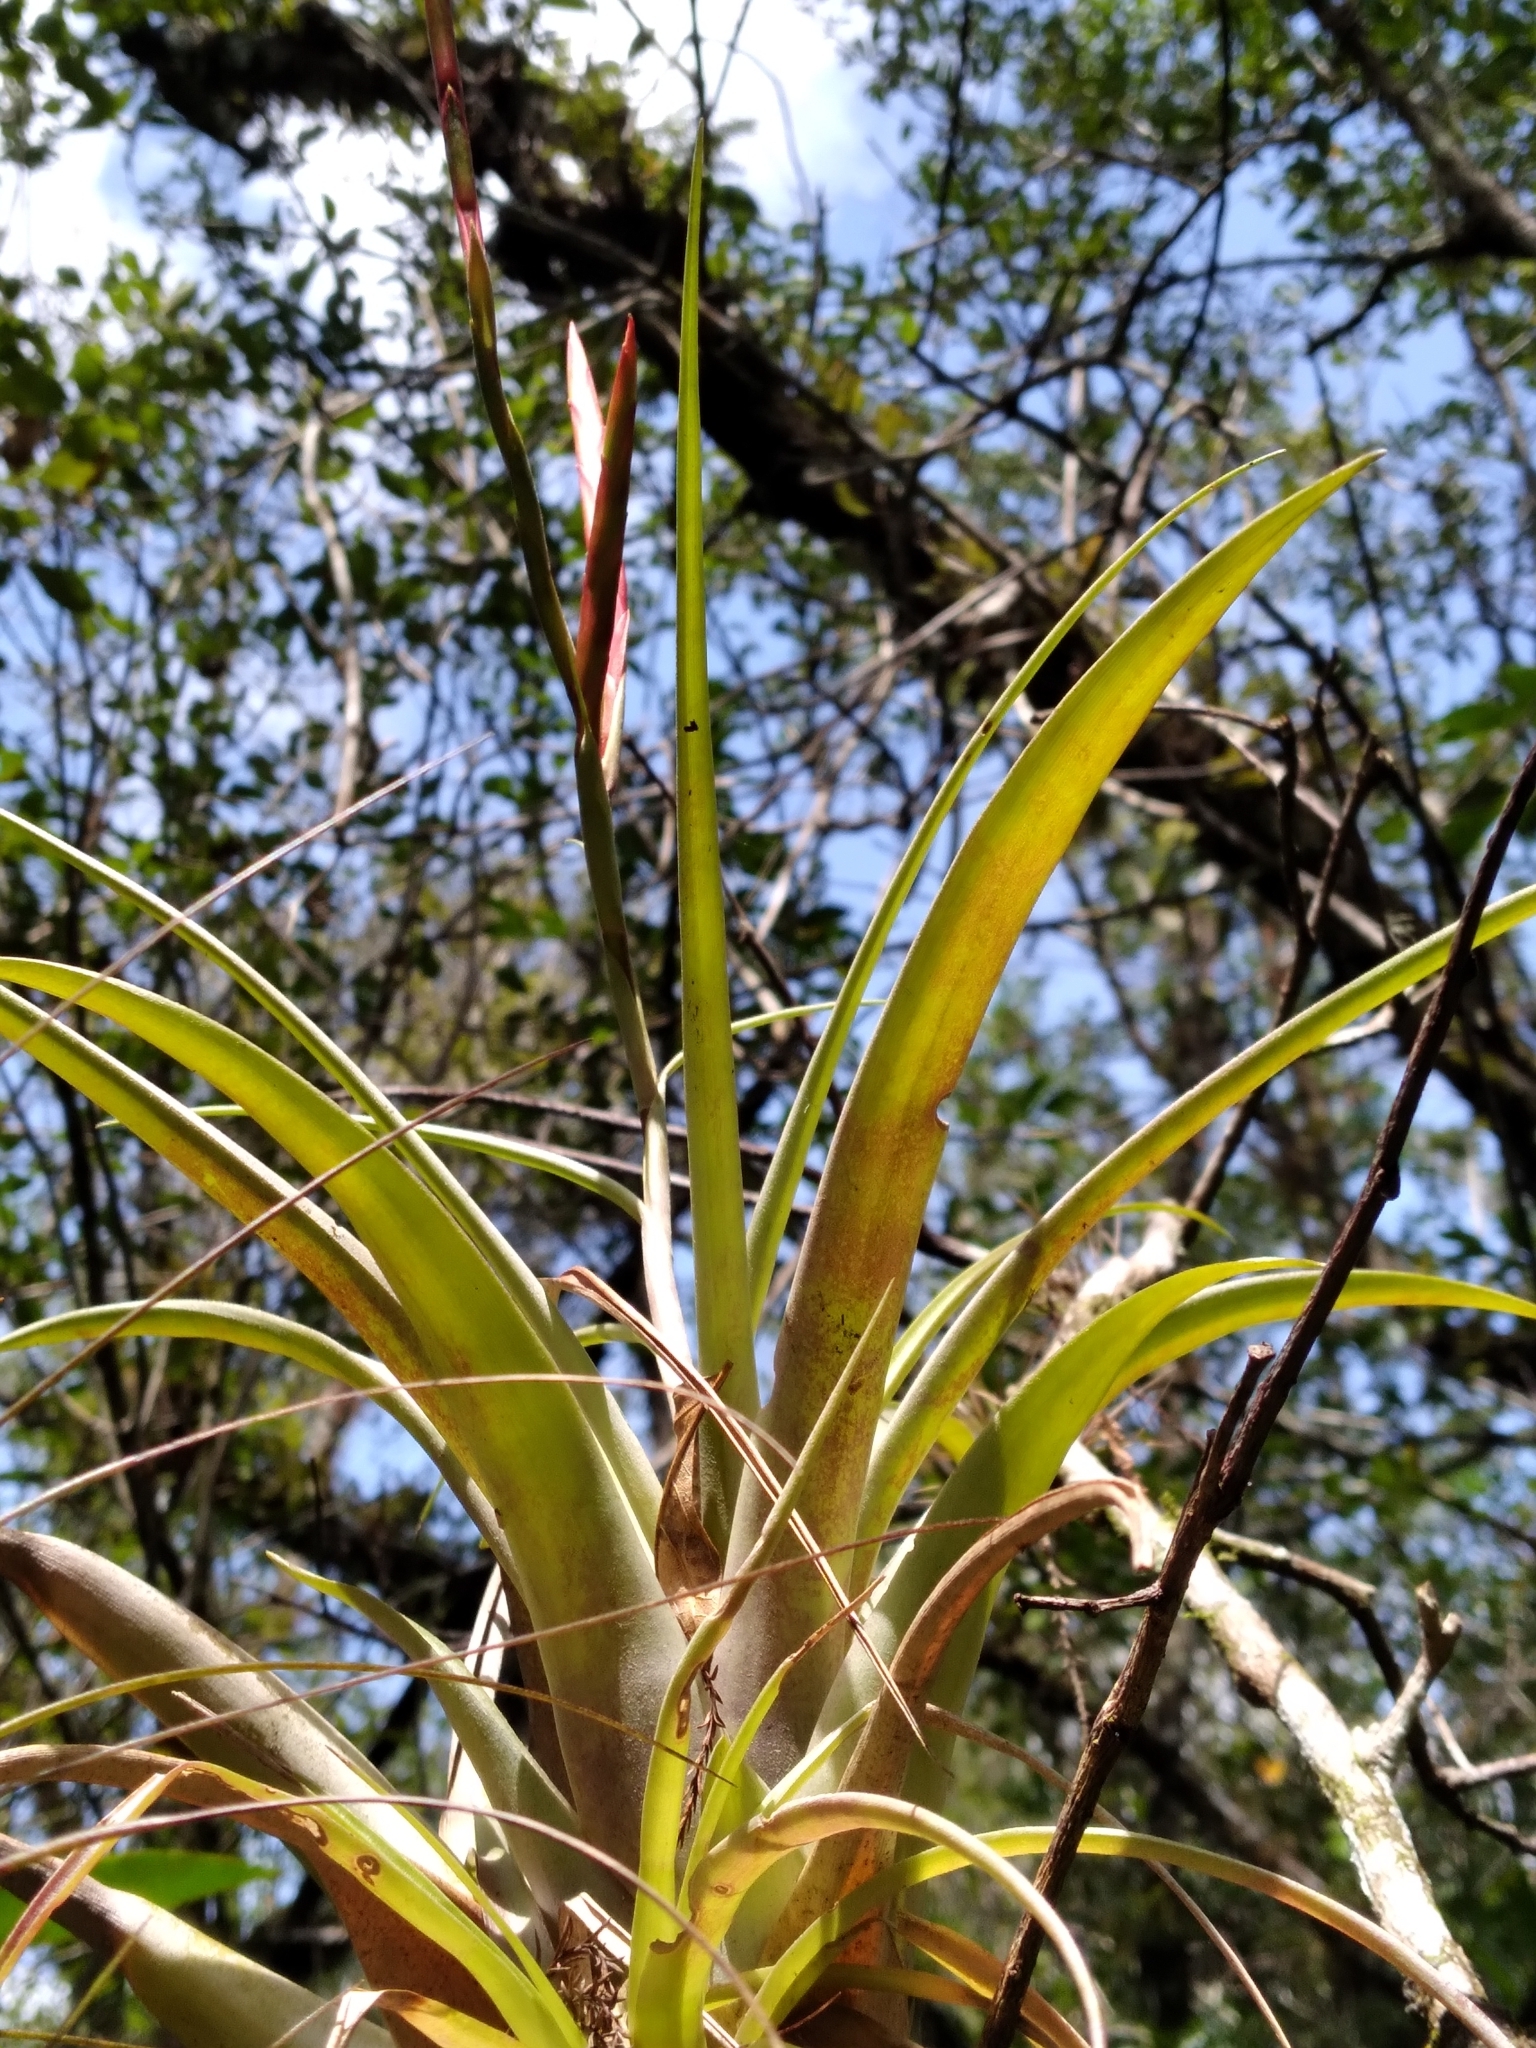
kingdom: Plantae
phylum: Tracheophyta
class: Liliopsida
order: Poales
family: Bromeliaceae
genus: Tillandsia
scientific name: Tillandsia variabilis
